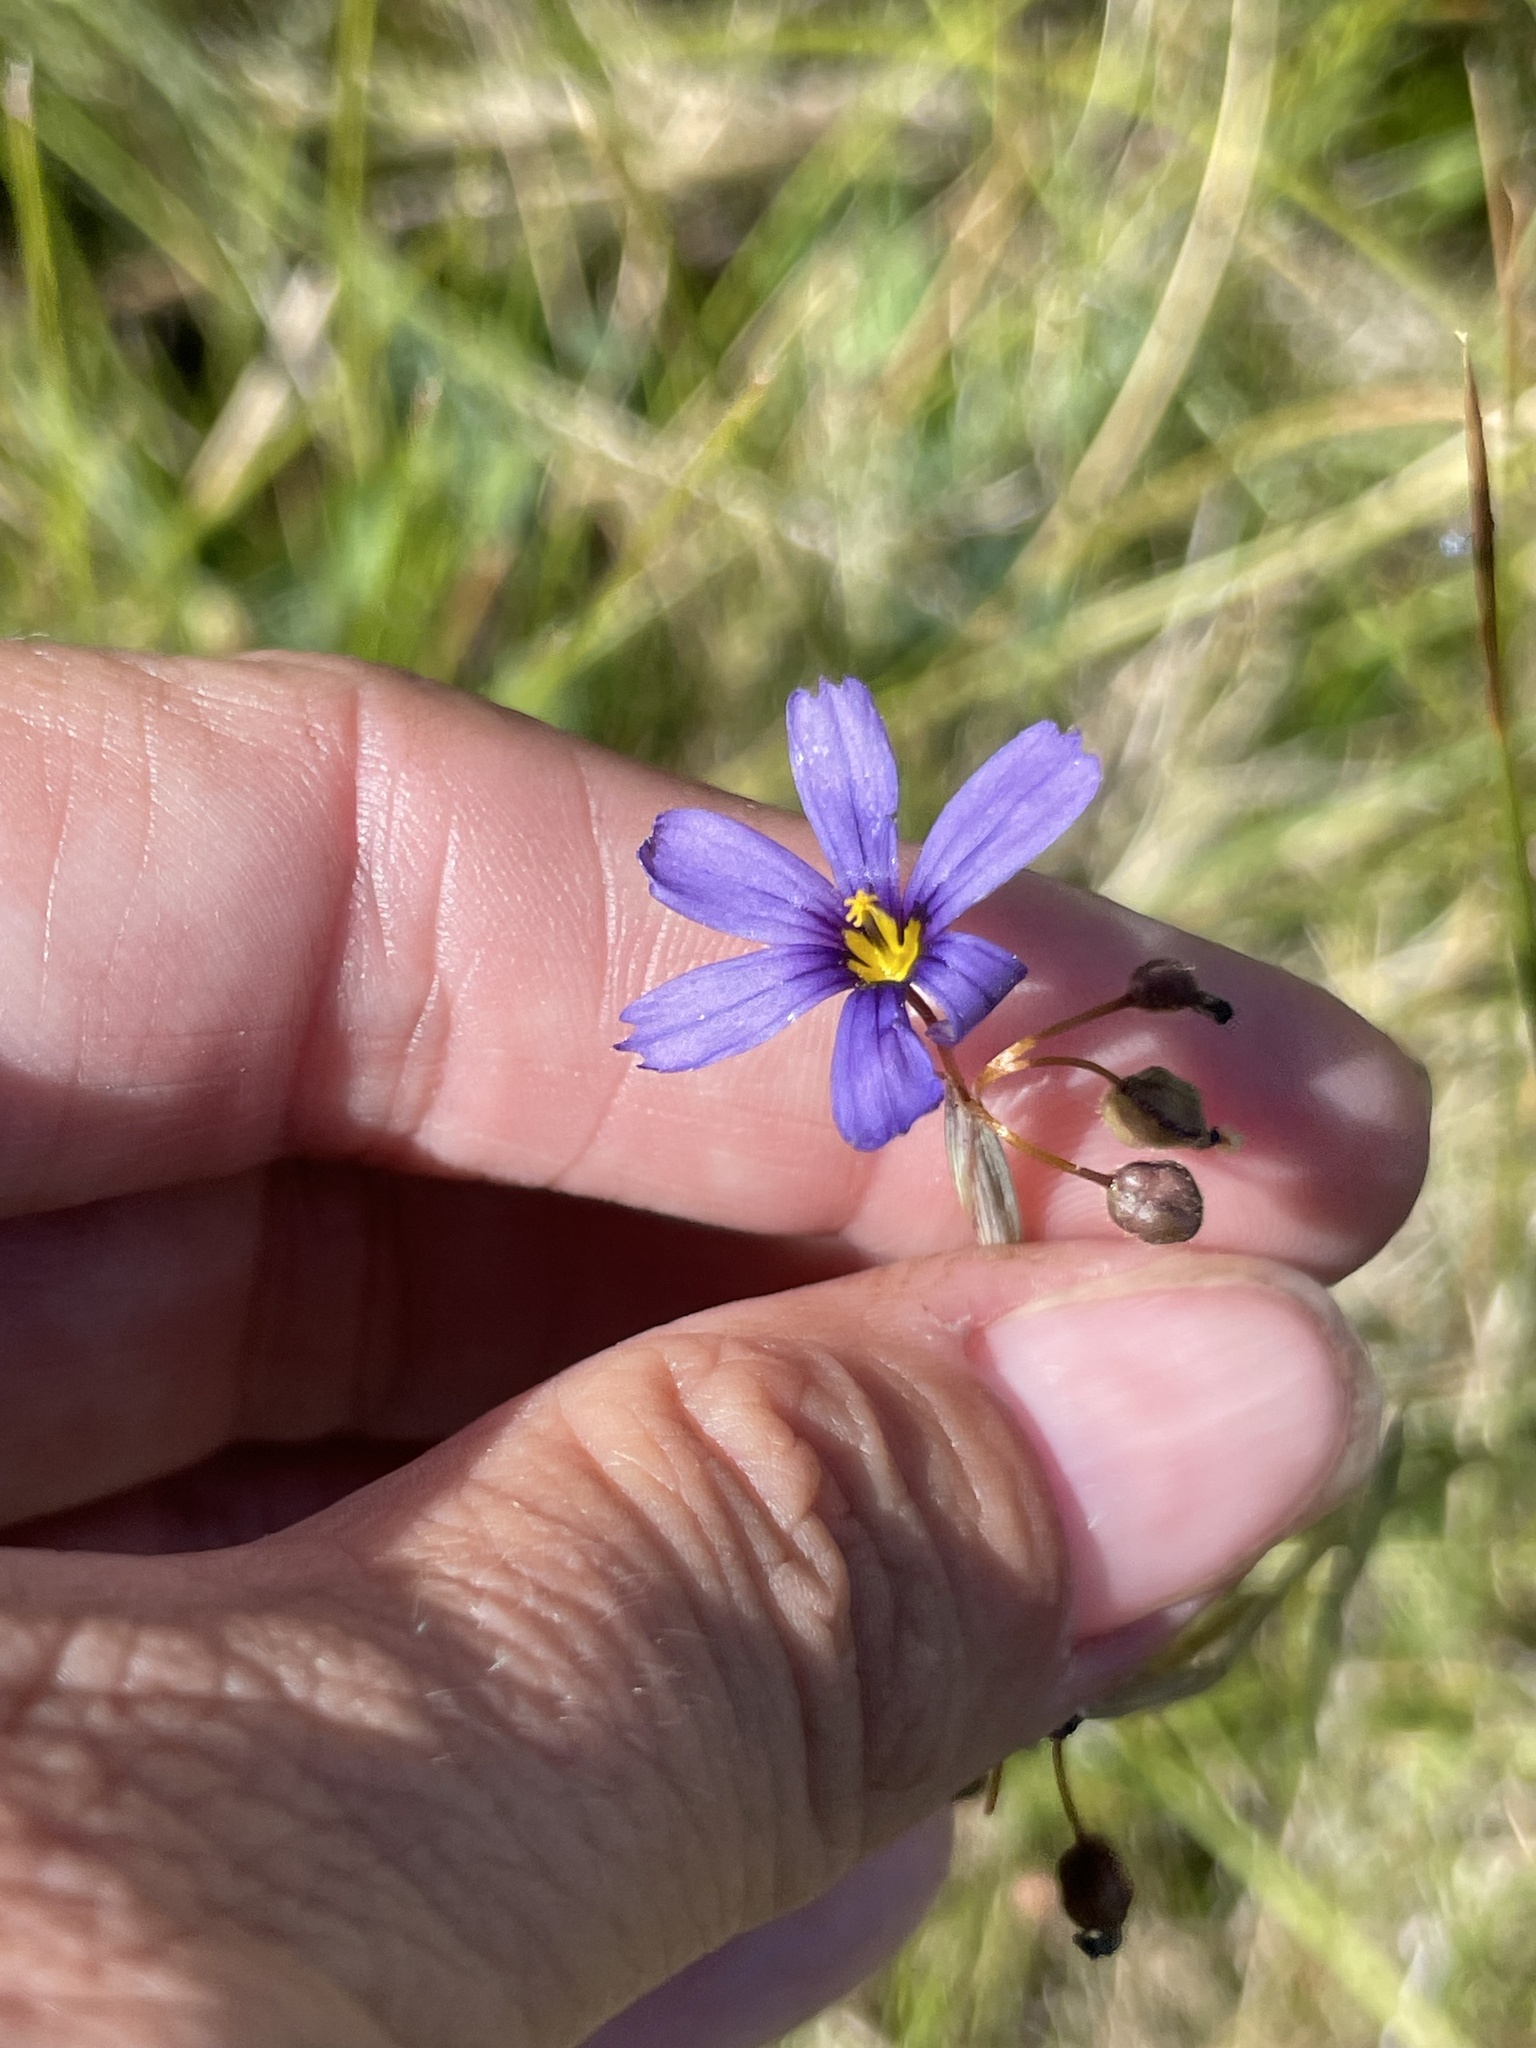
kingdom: Plantae
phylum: Tracheophyta
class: Liliopsida
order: Asparagales
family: Iridaceae
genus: Sisyrinchium
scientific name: Sisyrinchium bellum
